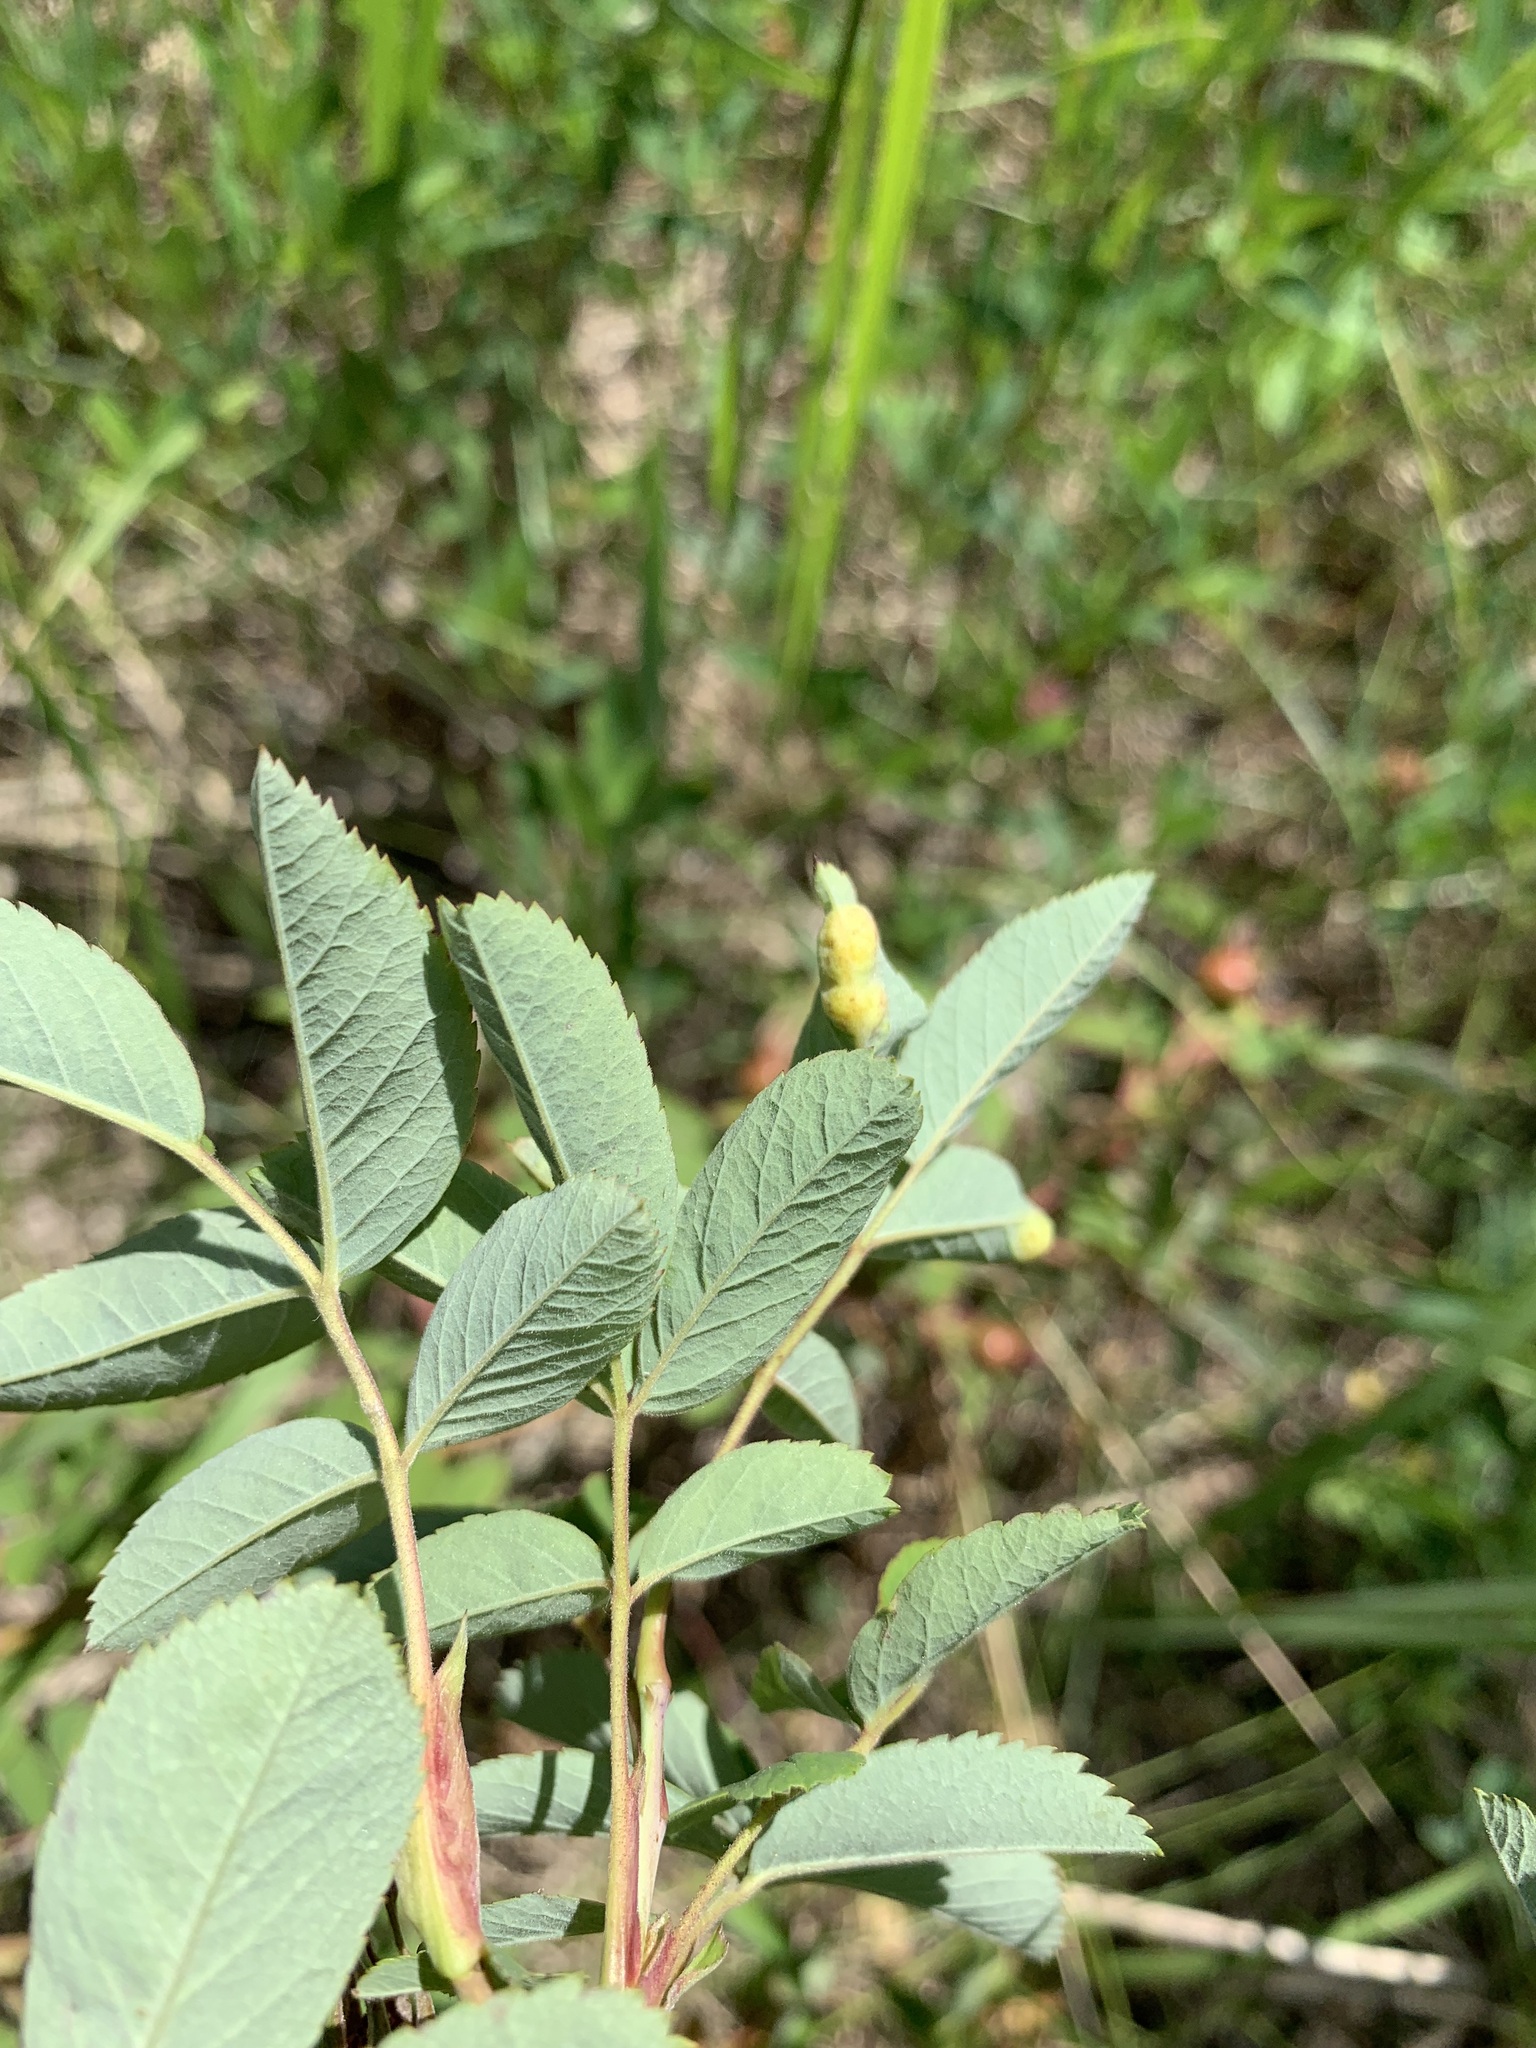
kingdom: Plantae
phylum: Tracheophyta
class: Magnoliopsida
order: Rosales
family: Rosaceae
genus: Rosa
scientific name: Rosa majalis
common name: Cinnamon rose
